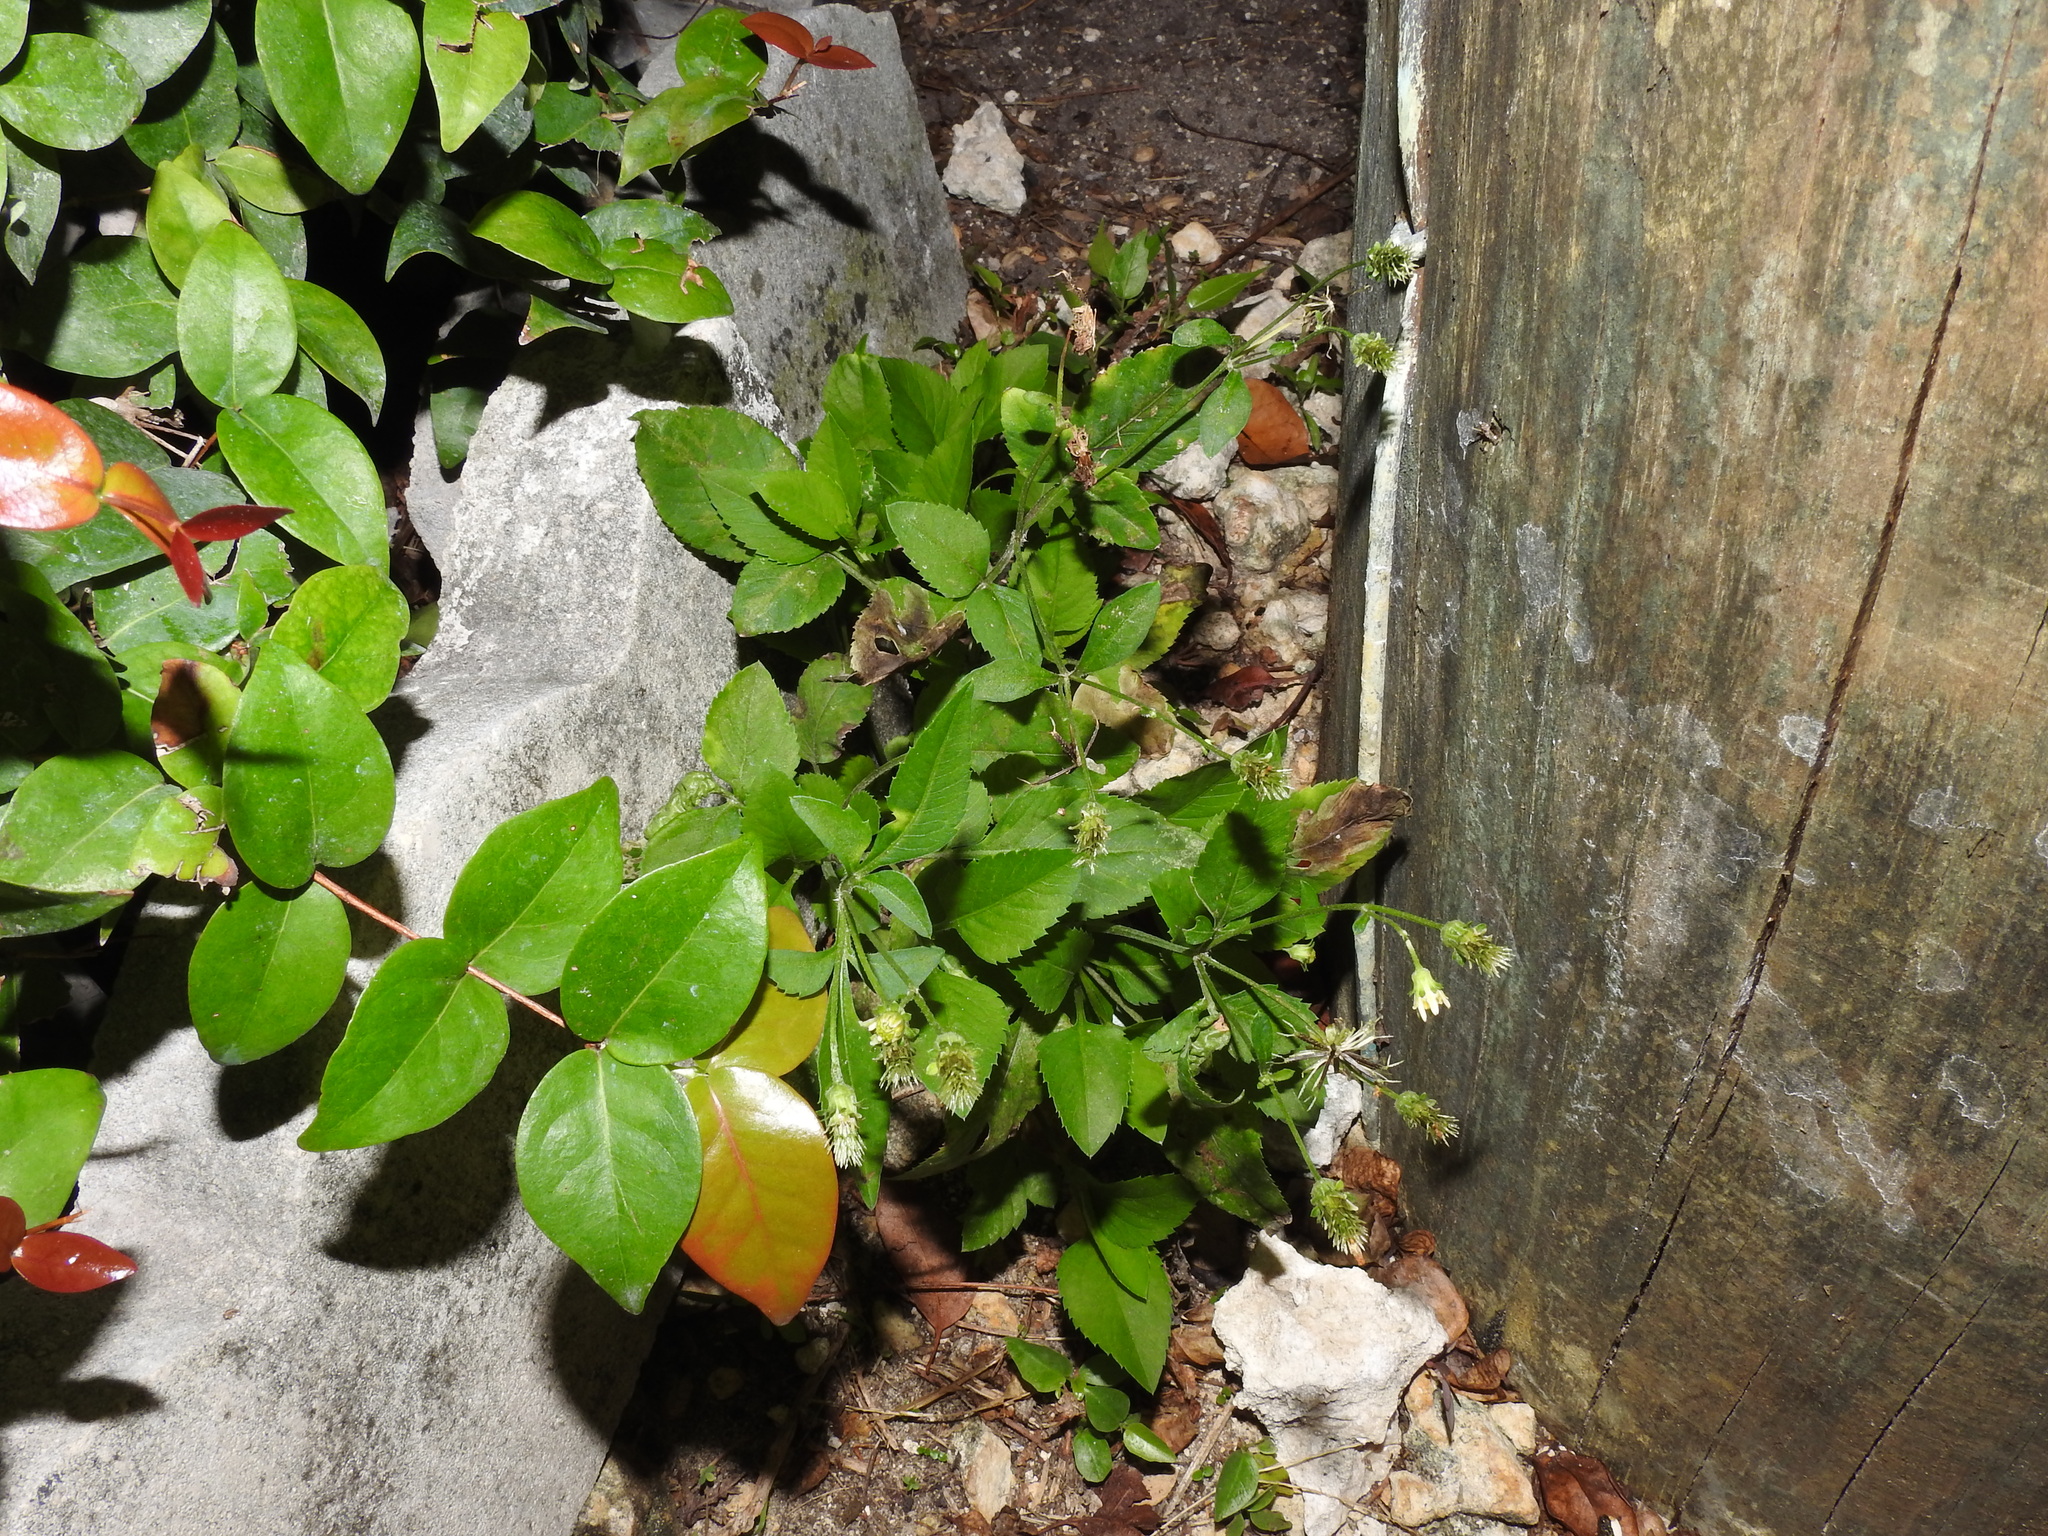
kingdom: Plantae
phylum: Tracheophyta
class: Magnoliopsida
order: Asterales
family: Asteraceae
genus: Bidens
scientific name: Bidens alba
